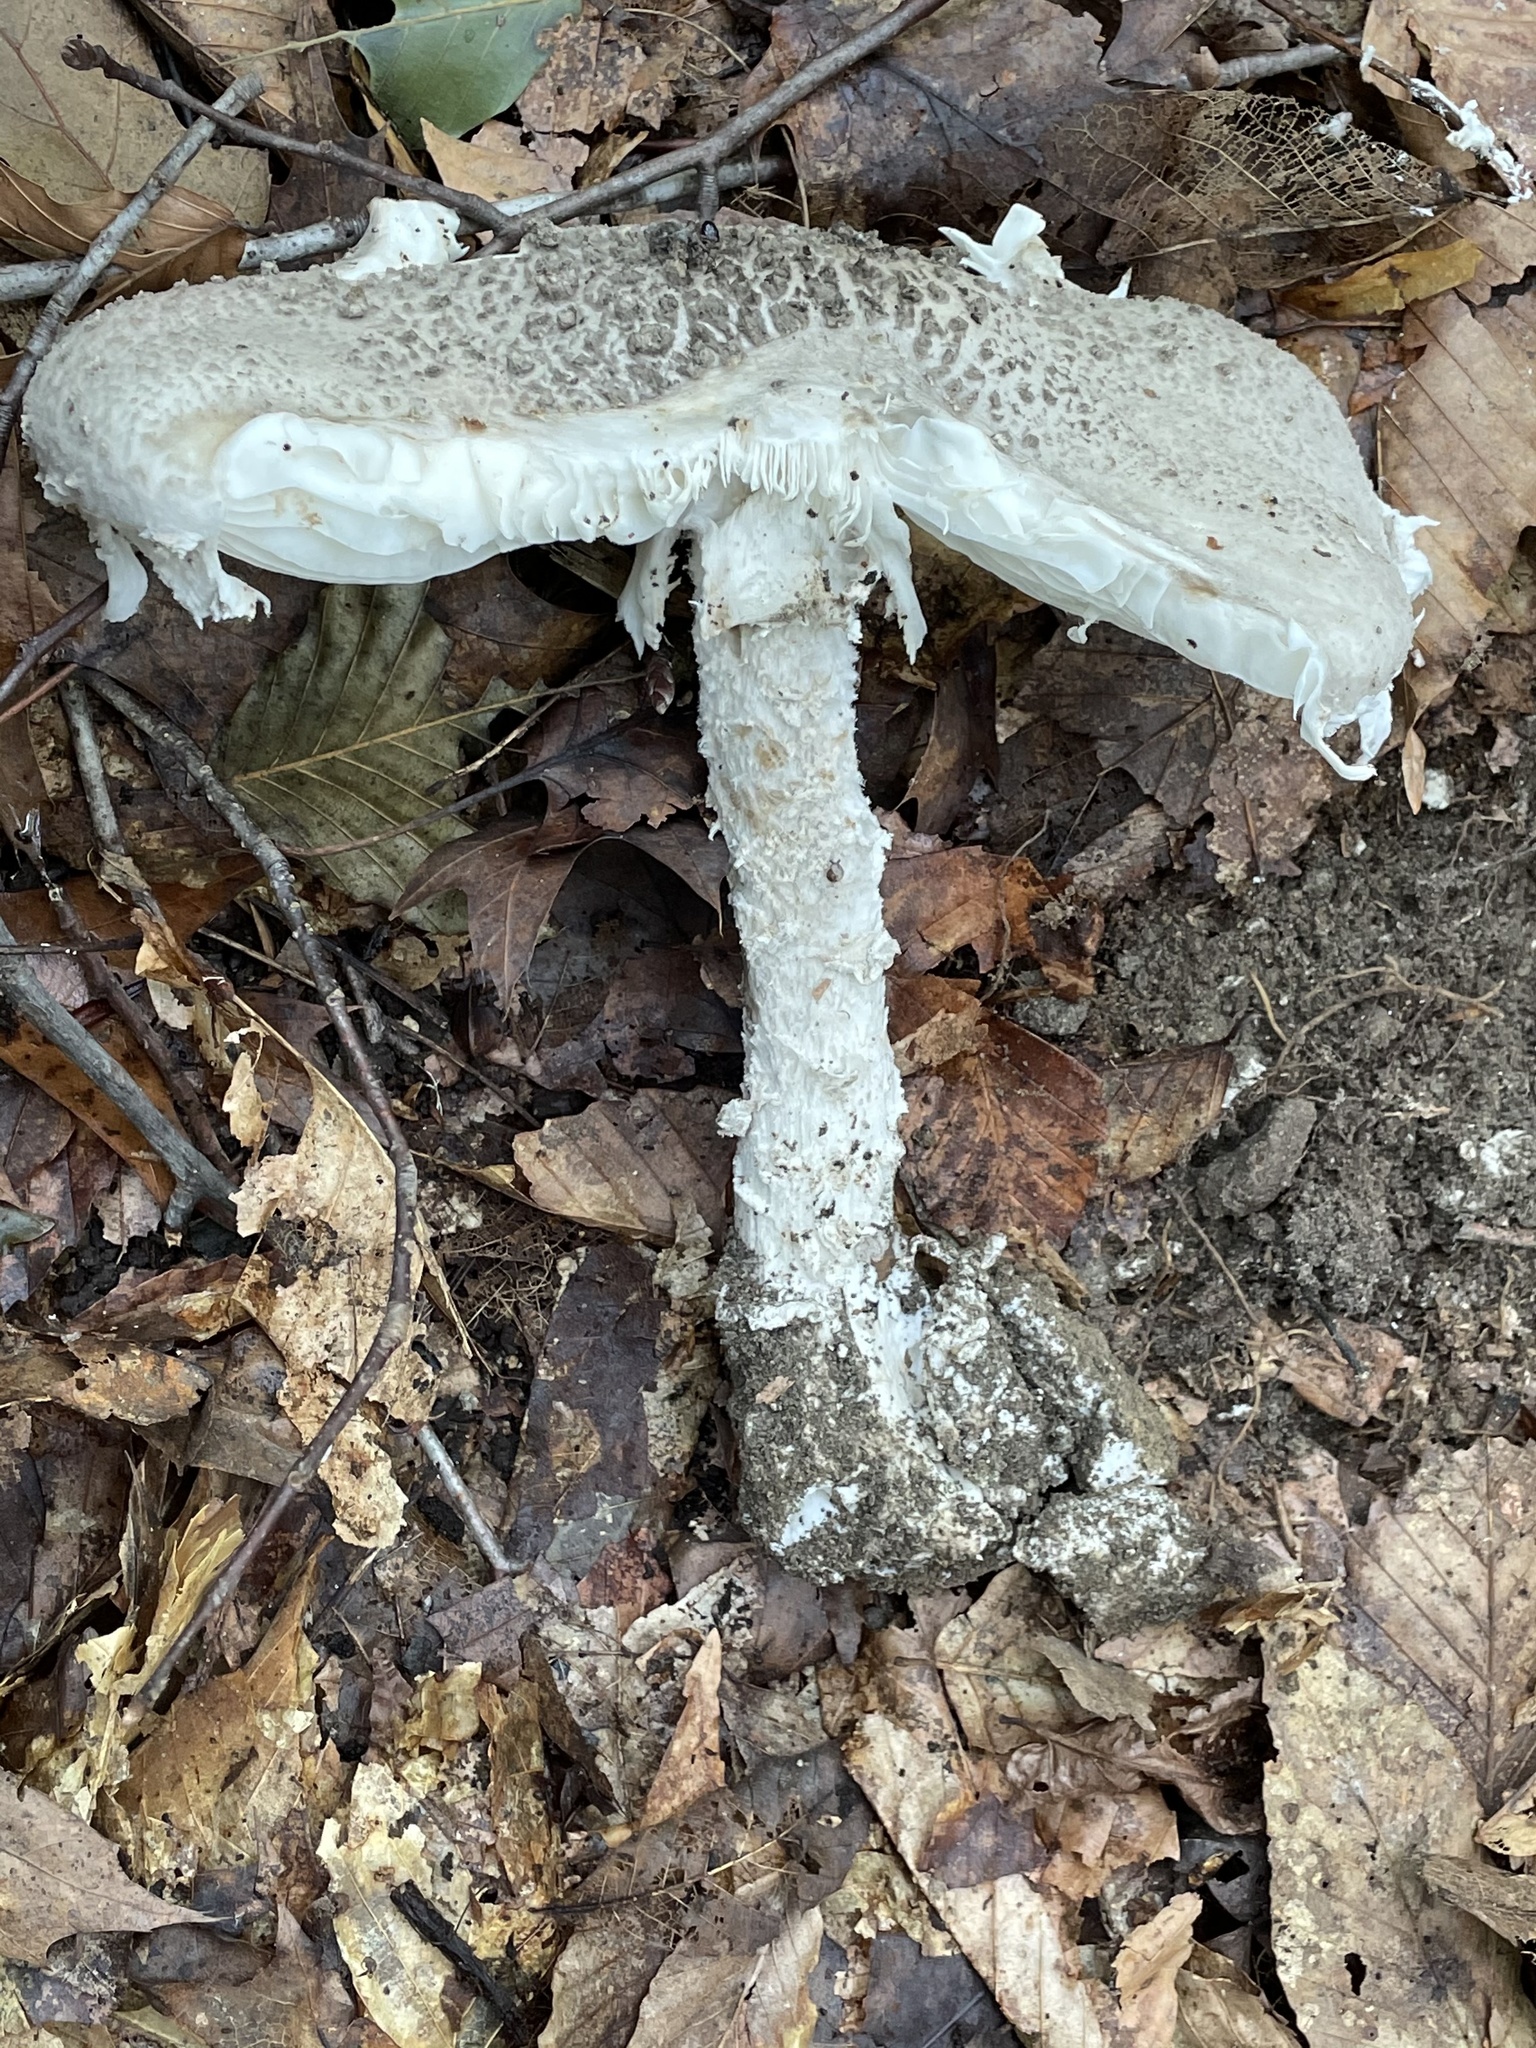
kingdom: Fungi
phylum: Basidiomycota
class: Agaricomycetes
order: Agaricales
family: Amanitaceae
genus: Amanita
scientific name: Amanita cinereopannosa
